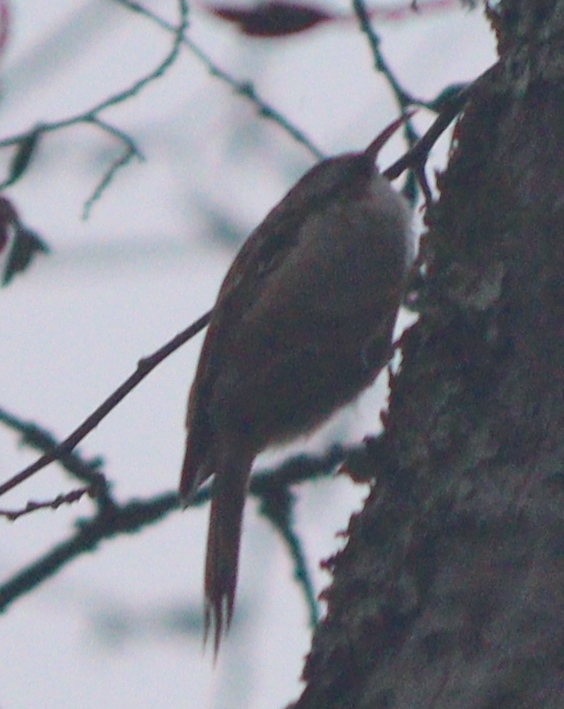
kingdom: Animalia
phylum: Chordata
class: Aves
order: Passeriformes
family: Certhiidae
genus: Certhia
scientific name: Certhia brachydactyla
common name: Short-toed treecreeper
